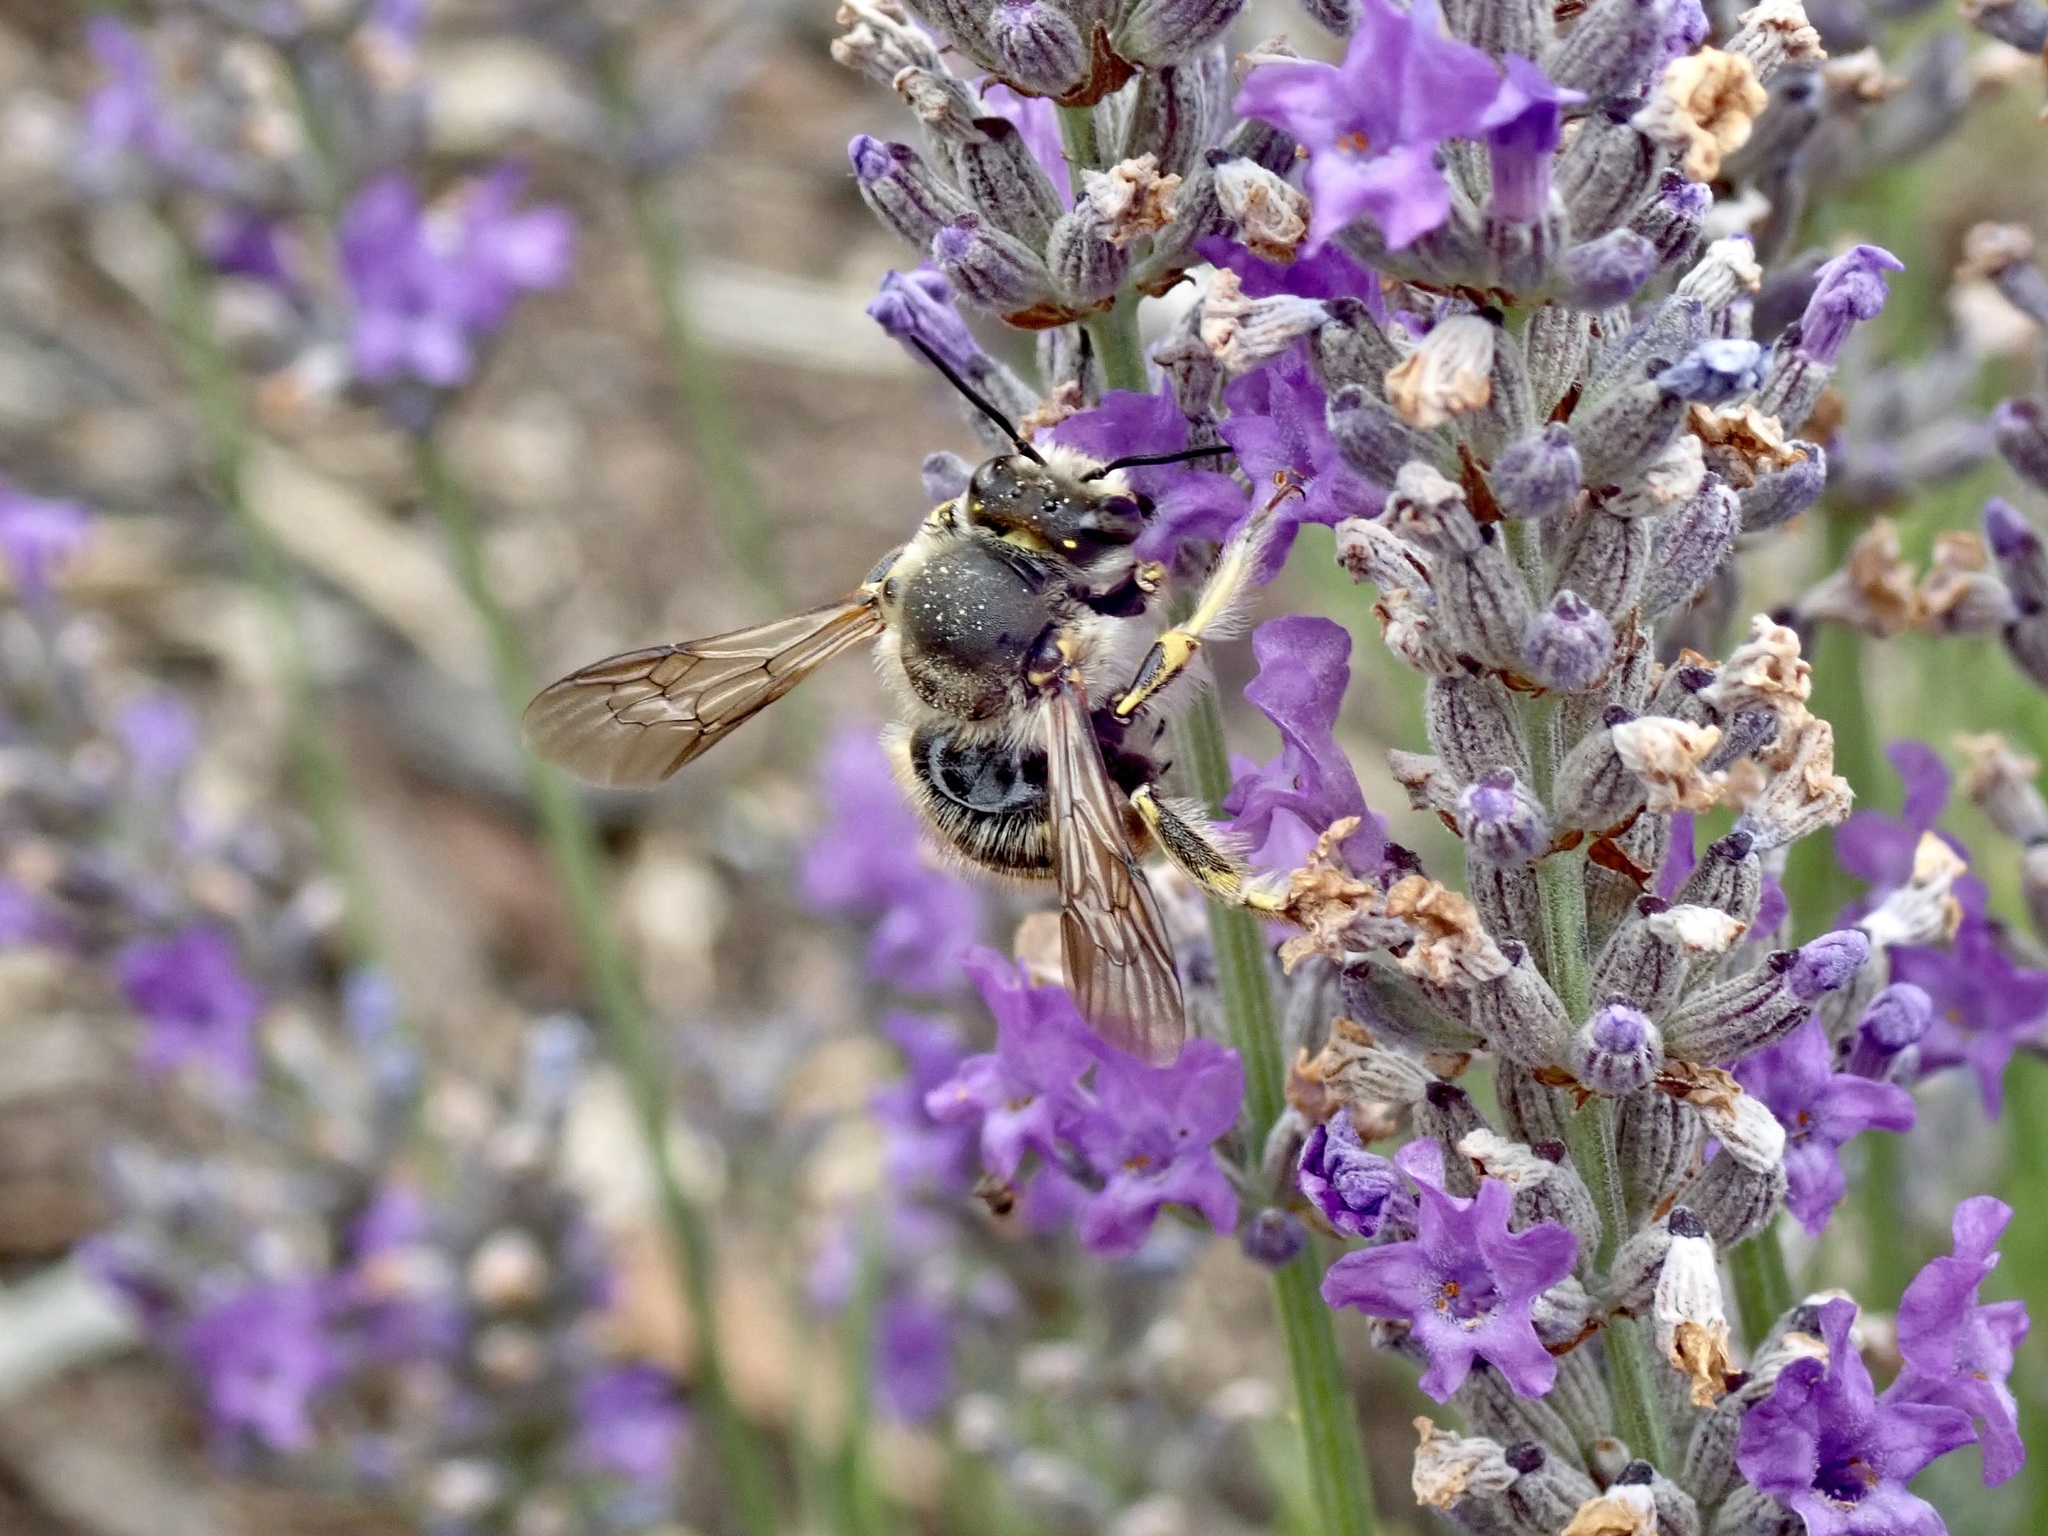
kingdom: Animalia
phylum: Arthropoda
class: Insecta
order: Hymenoptera
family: Megachilidae
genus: Anthidium
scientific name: Anthidium manicatum
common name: Wool carder bee
